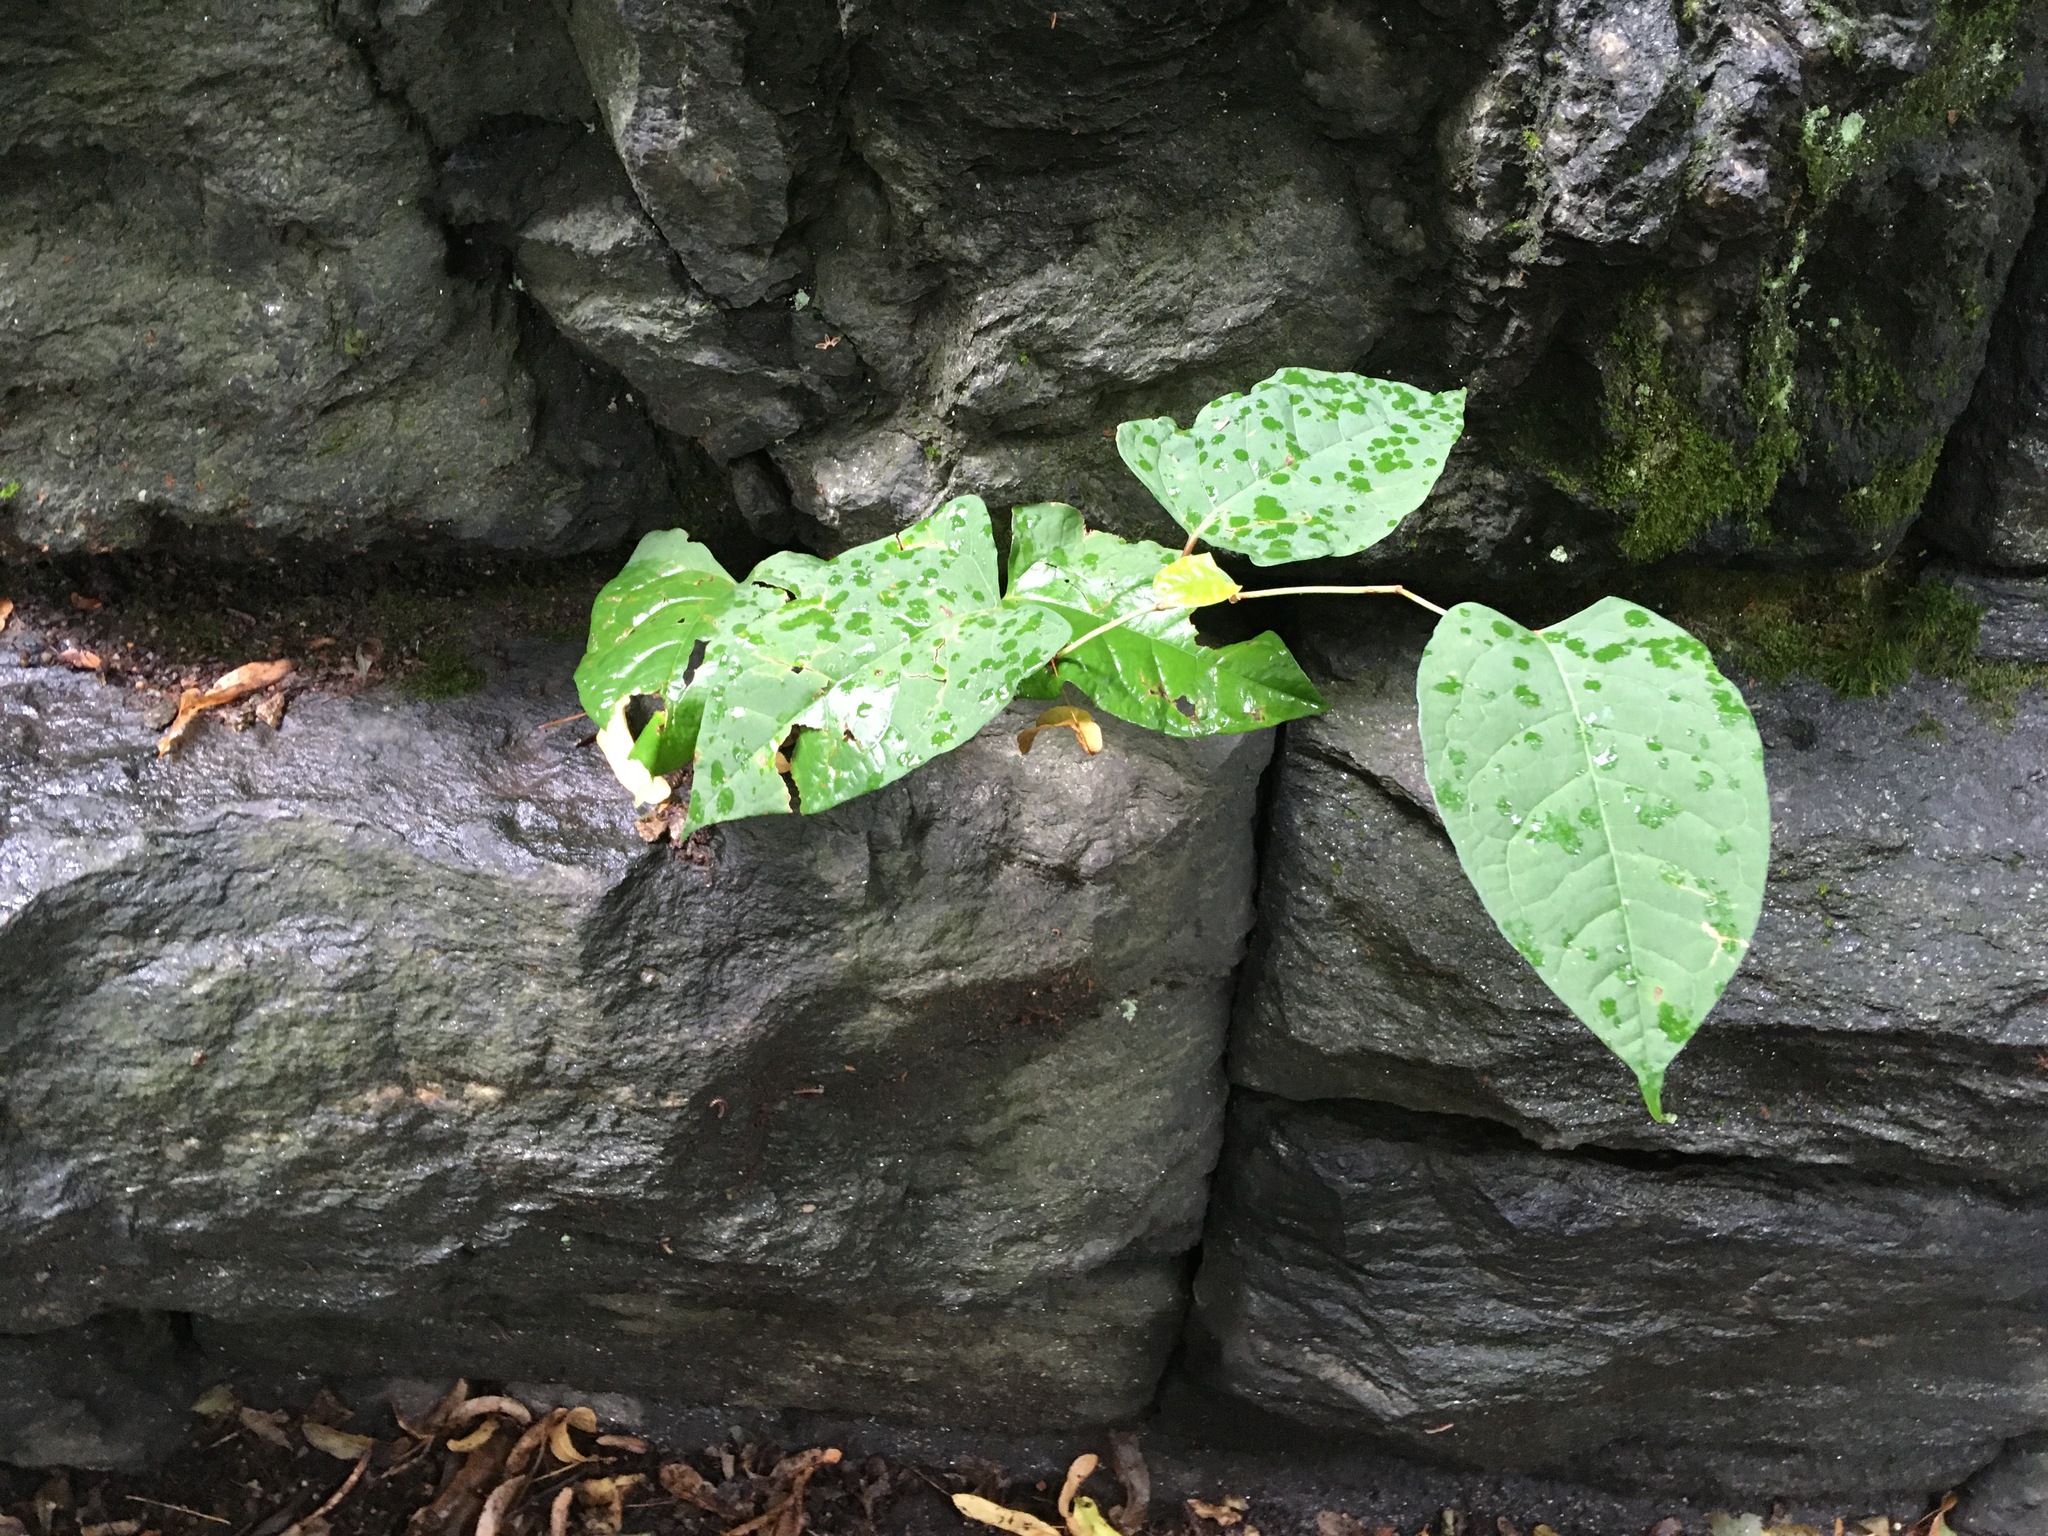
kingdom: Plantae
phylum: Tracheophyta
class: Magnoliopsida
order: Caryophyllales
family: Polygonaceae
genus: Reynoutria
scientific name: Reynoutria japonica
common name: Japanese knotweed
